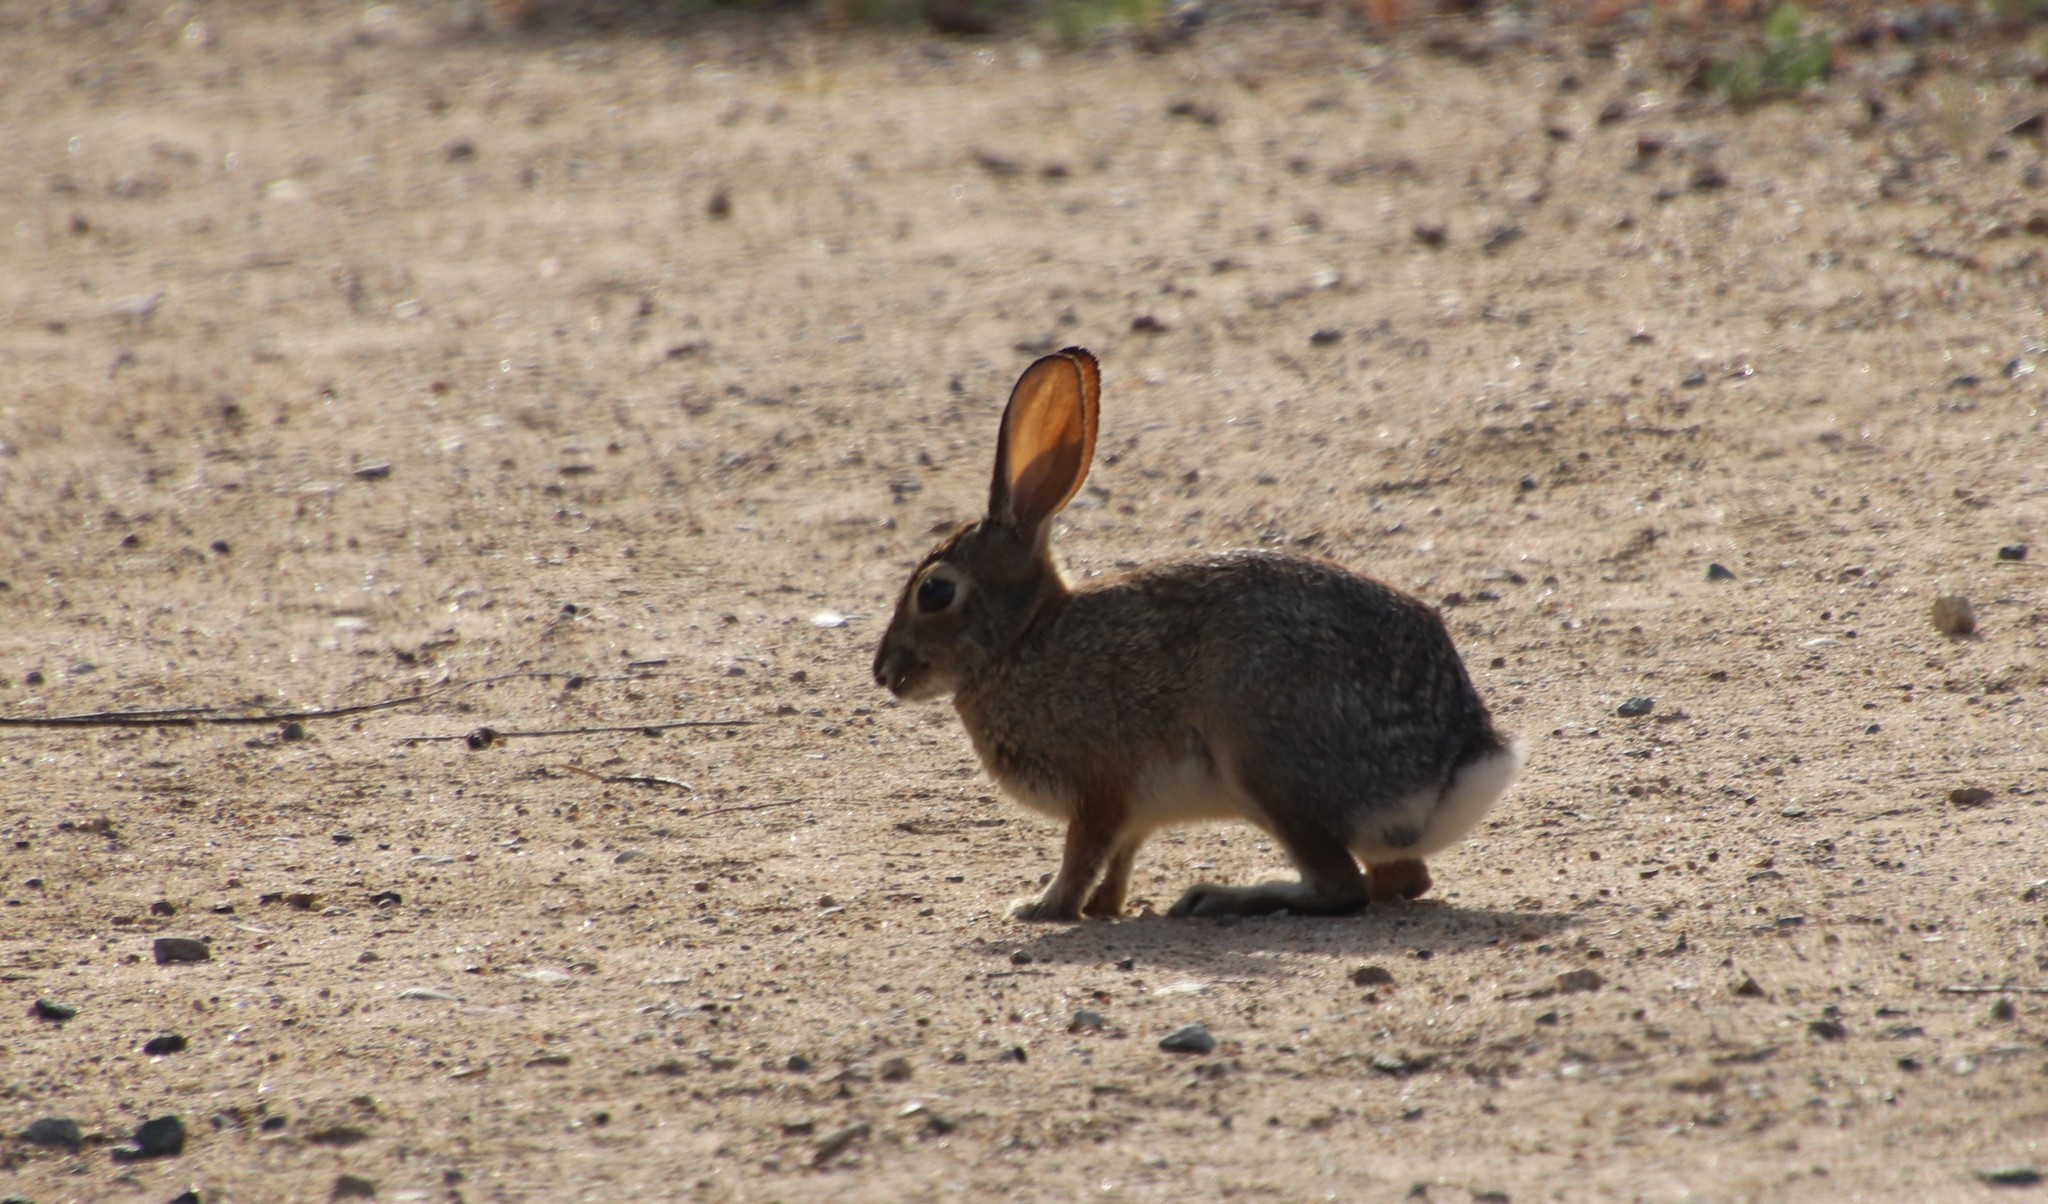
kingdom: Animalia
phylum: Chordata
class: Mammalia
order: Lagomorpha
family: Leporidae
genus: Sylvilagus
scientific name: Sylvilagus audubonii
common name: Desert cottontail
